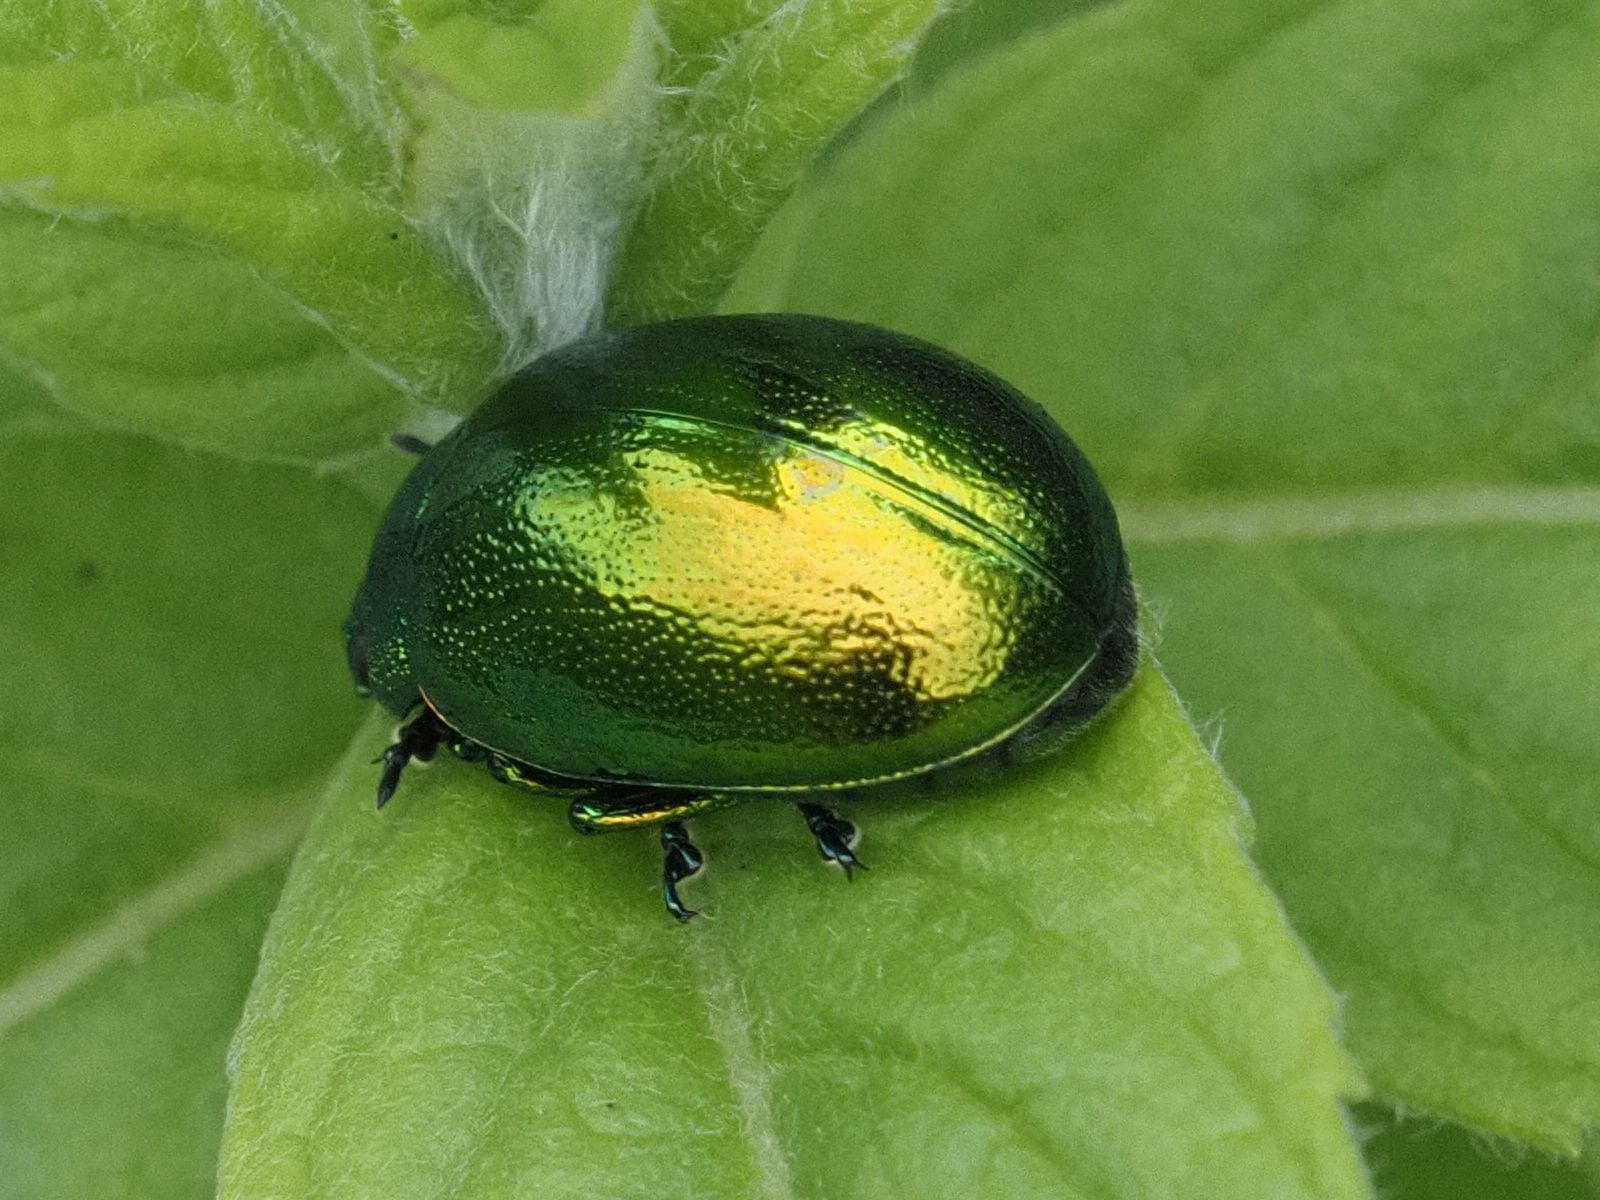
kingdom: Animalia
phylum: Arthropoda
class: Insecta
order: Coleoptera
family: Chrysomelidae
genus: Chrysolina
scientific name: Chrysolina herbacea
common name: Mint leaf beatle
